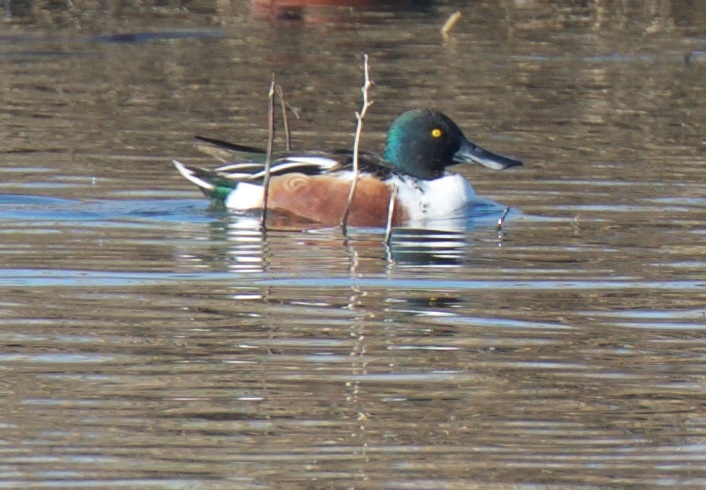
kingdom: Animalia
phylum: Chordata
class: Aves
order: Anseriformes
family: Anatidae
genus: Spatula
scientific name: Spatula clypeata
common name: Northern shoveler
